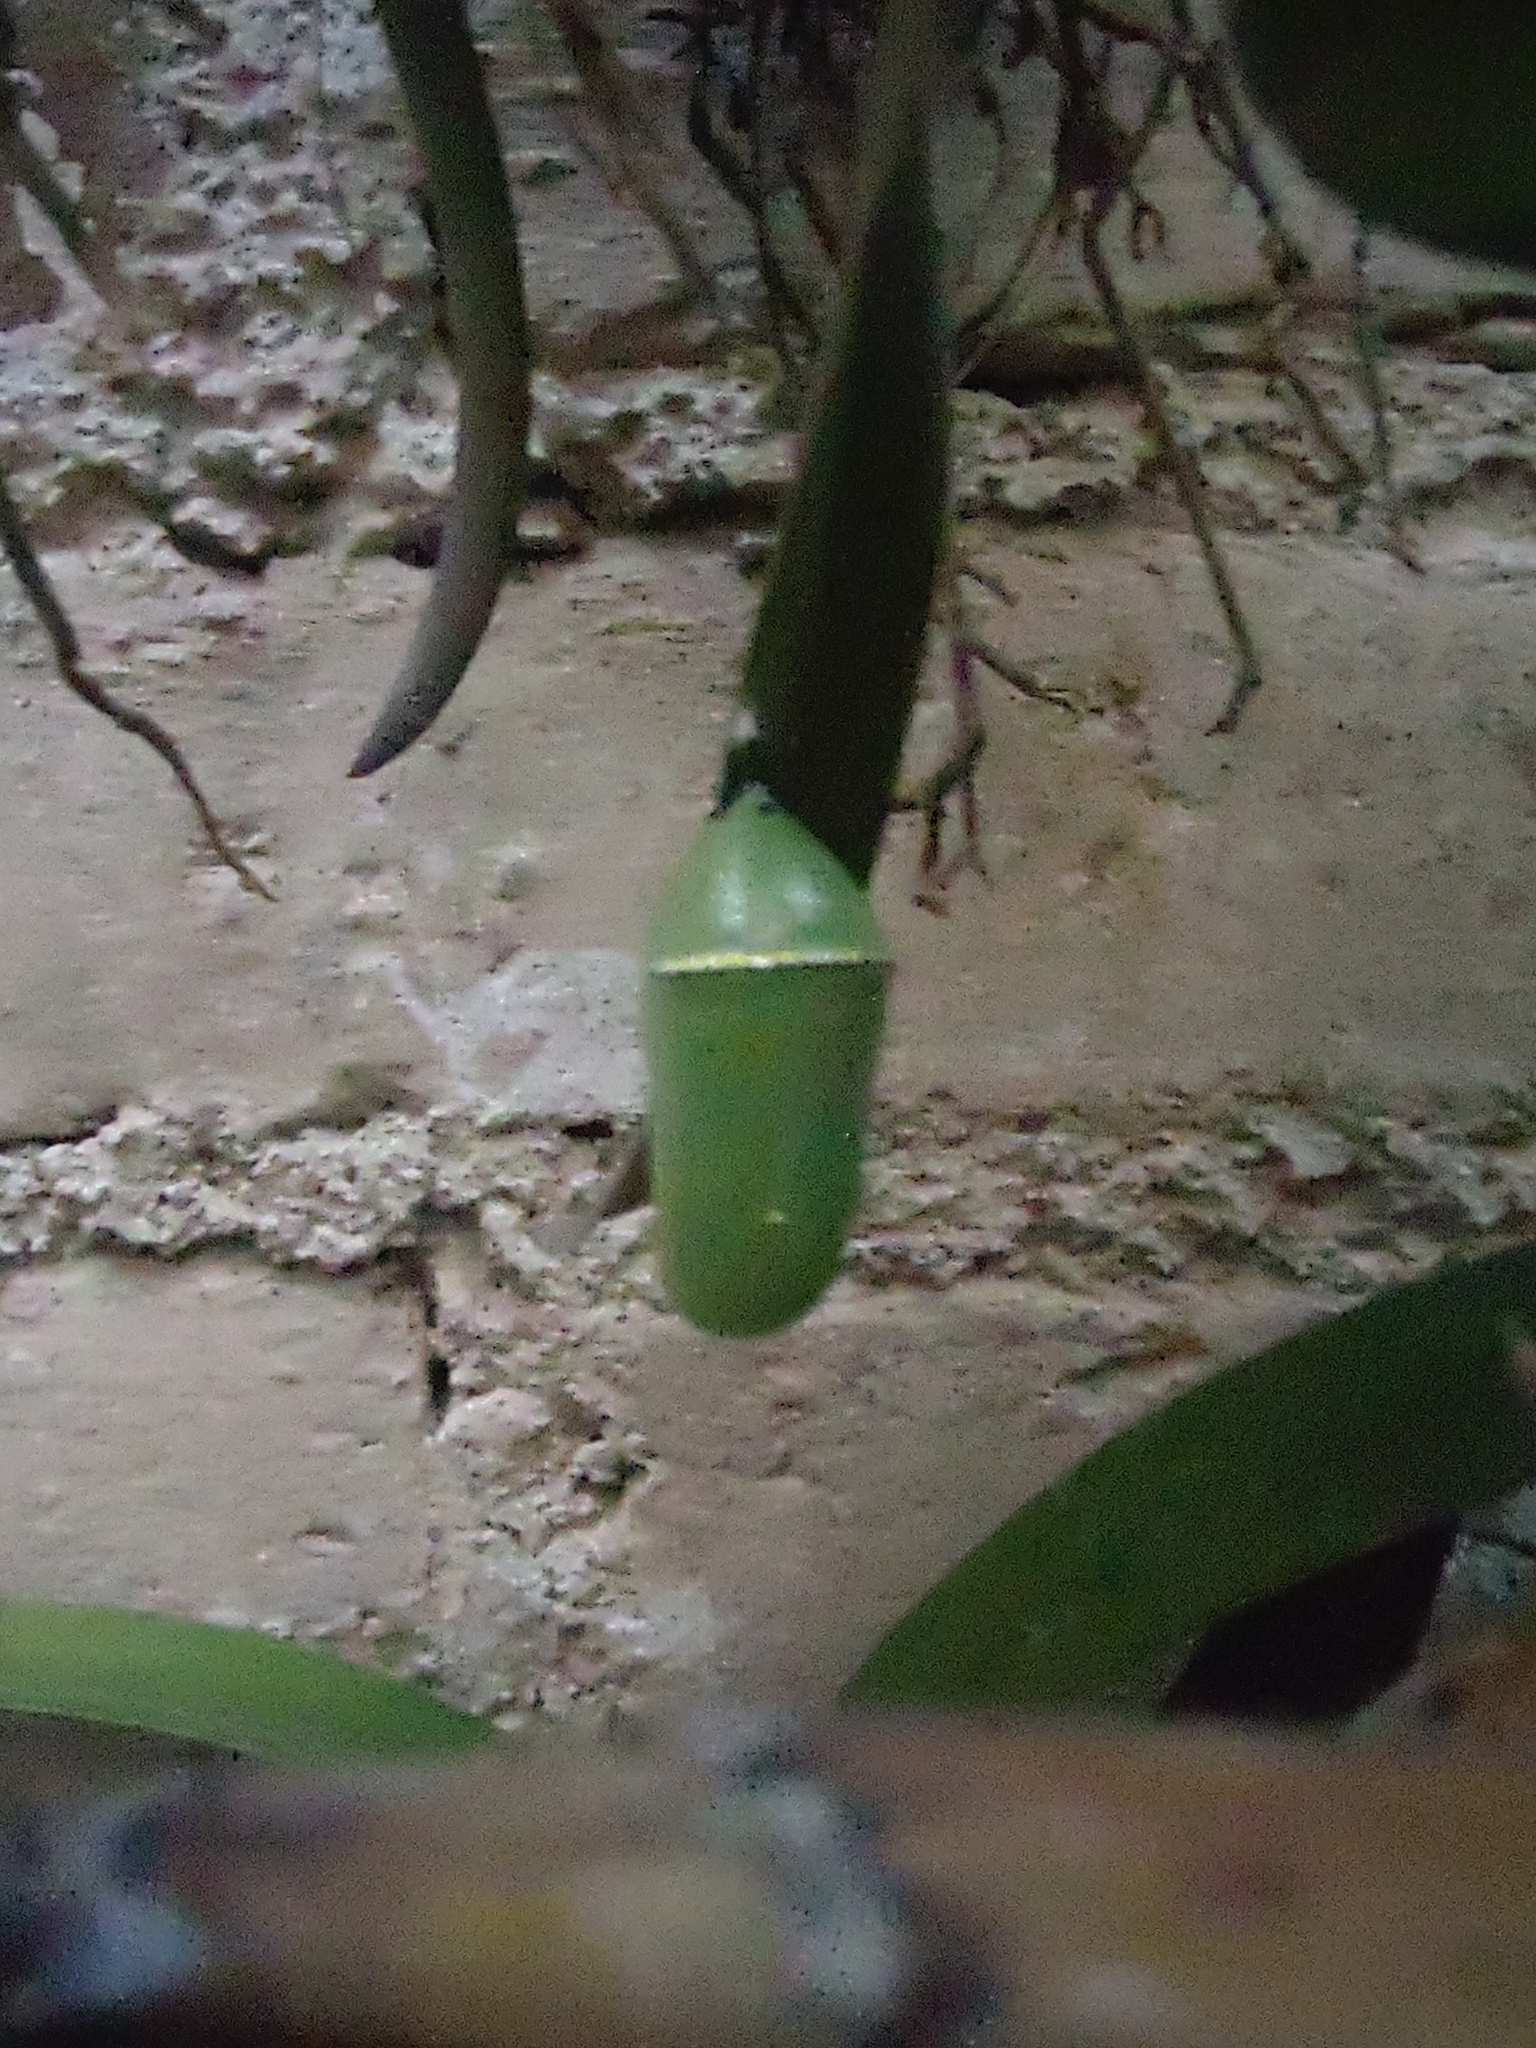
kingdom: Animalia
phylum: Arthropoda
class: Insecta
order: Lepidoptera
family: Nymphalidae
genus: Danaus
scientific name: Danaus plexippus
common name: Monarch
